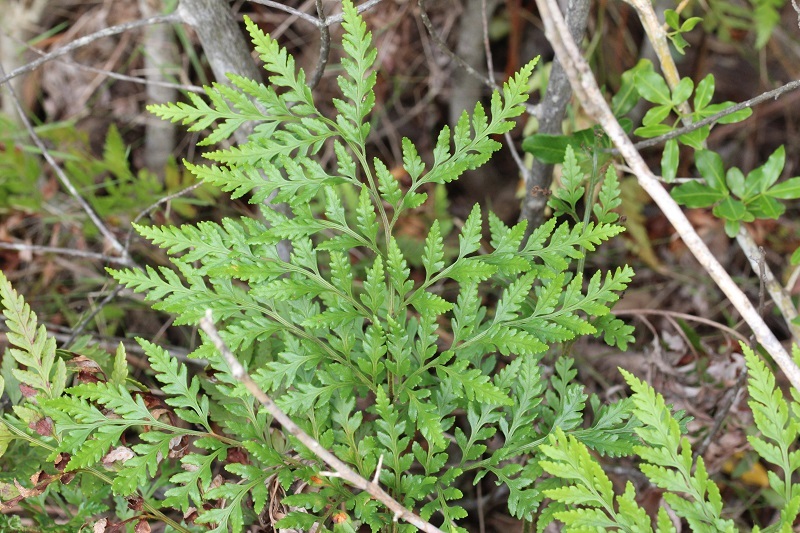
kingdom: Plantae
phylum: Tracheophyta
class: Polypodiopsida
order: Polypodiales
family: Dryopteridaceae
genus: Rumohra
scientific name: Rumohra adiantiformis
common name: Leather fern
